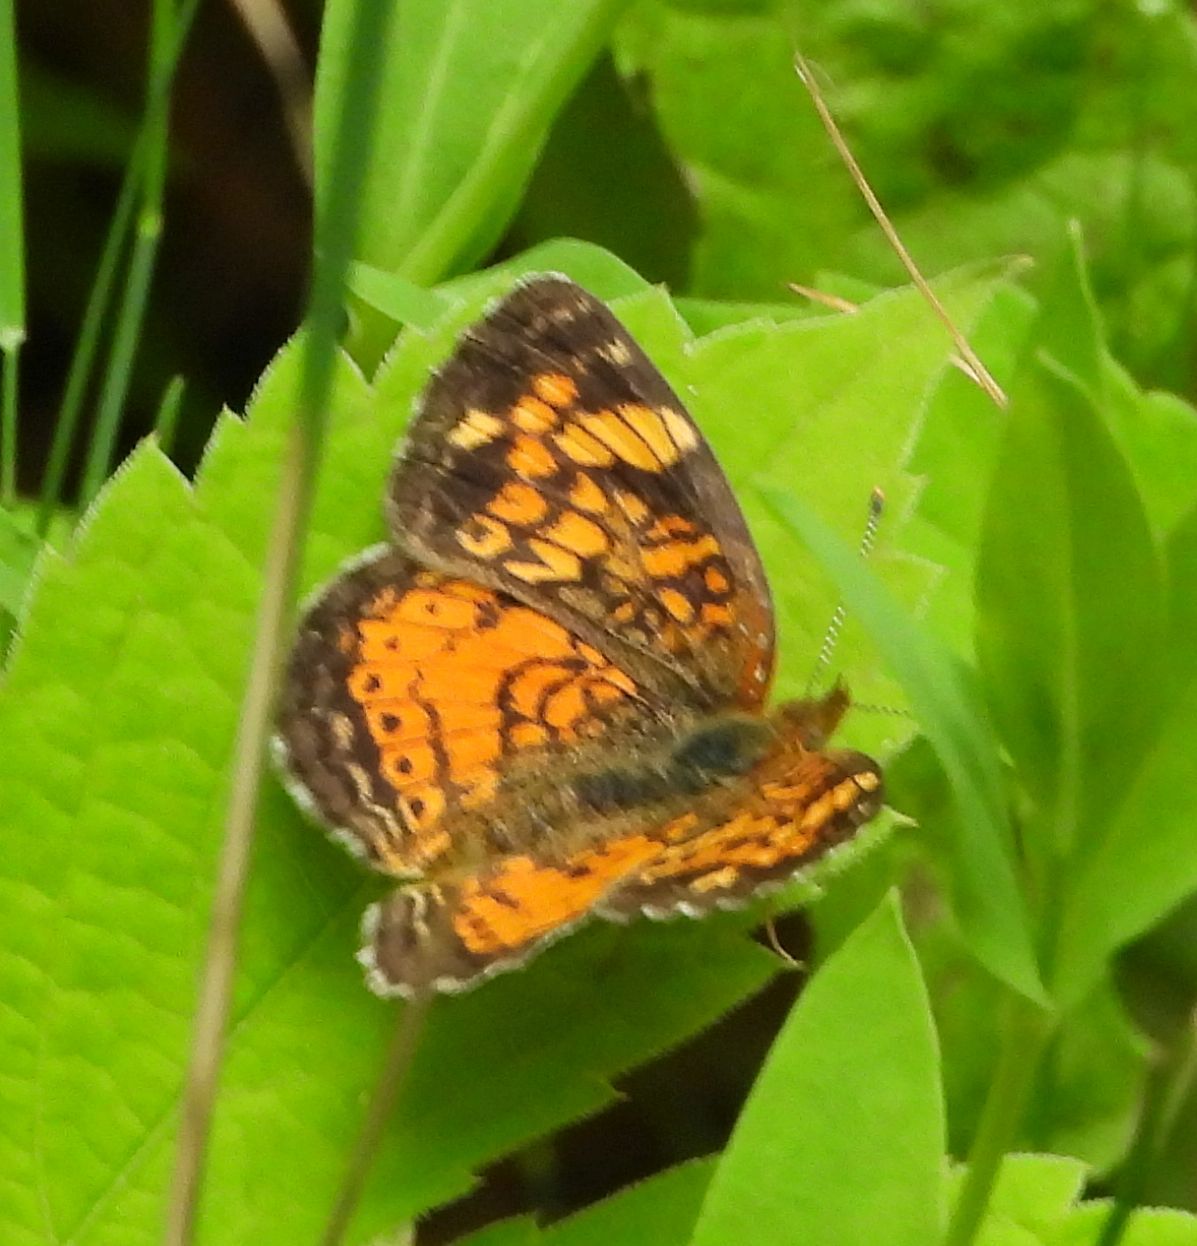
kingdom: Animalia
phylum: Arthropoda
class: Insecta
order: Lepidoptera
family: Nymphalidae
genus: Phyciodes
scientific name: Phyciodes tharos
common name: Pearl crescent
